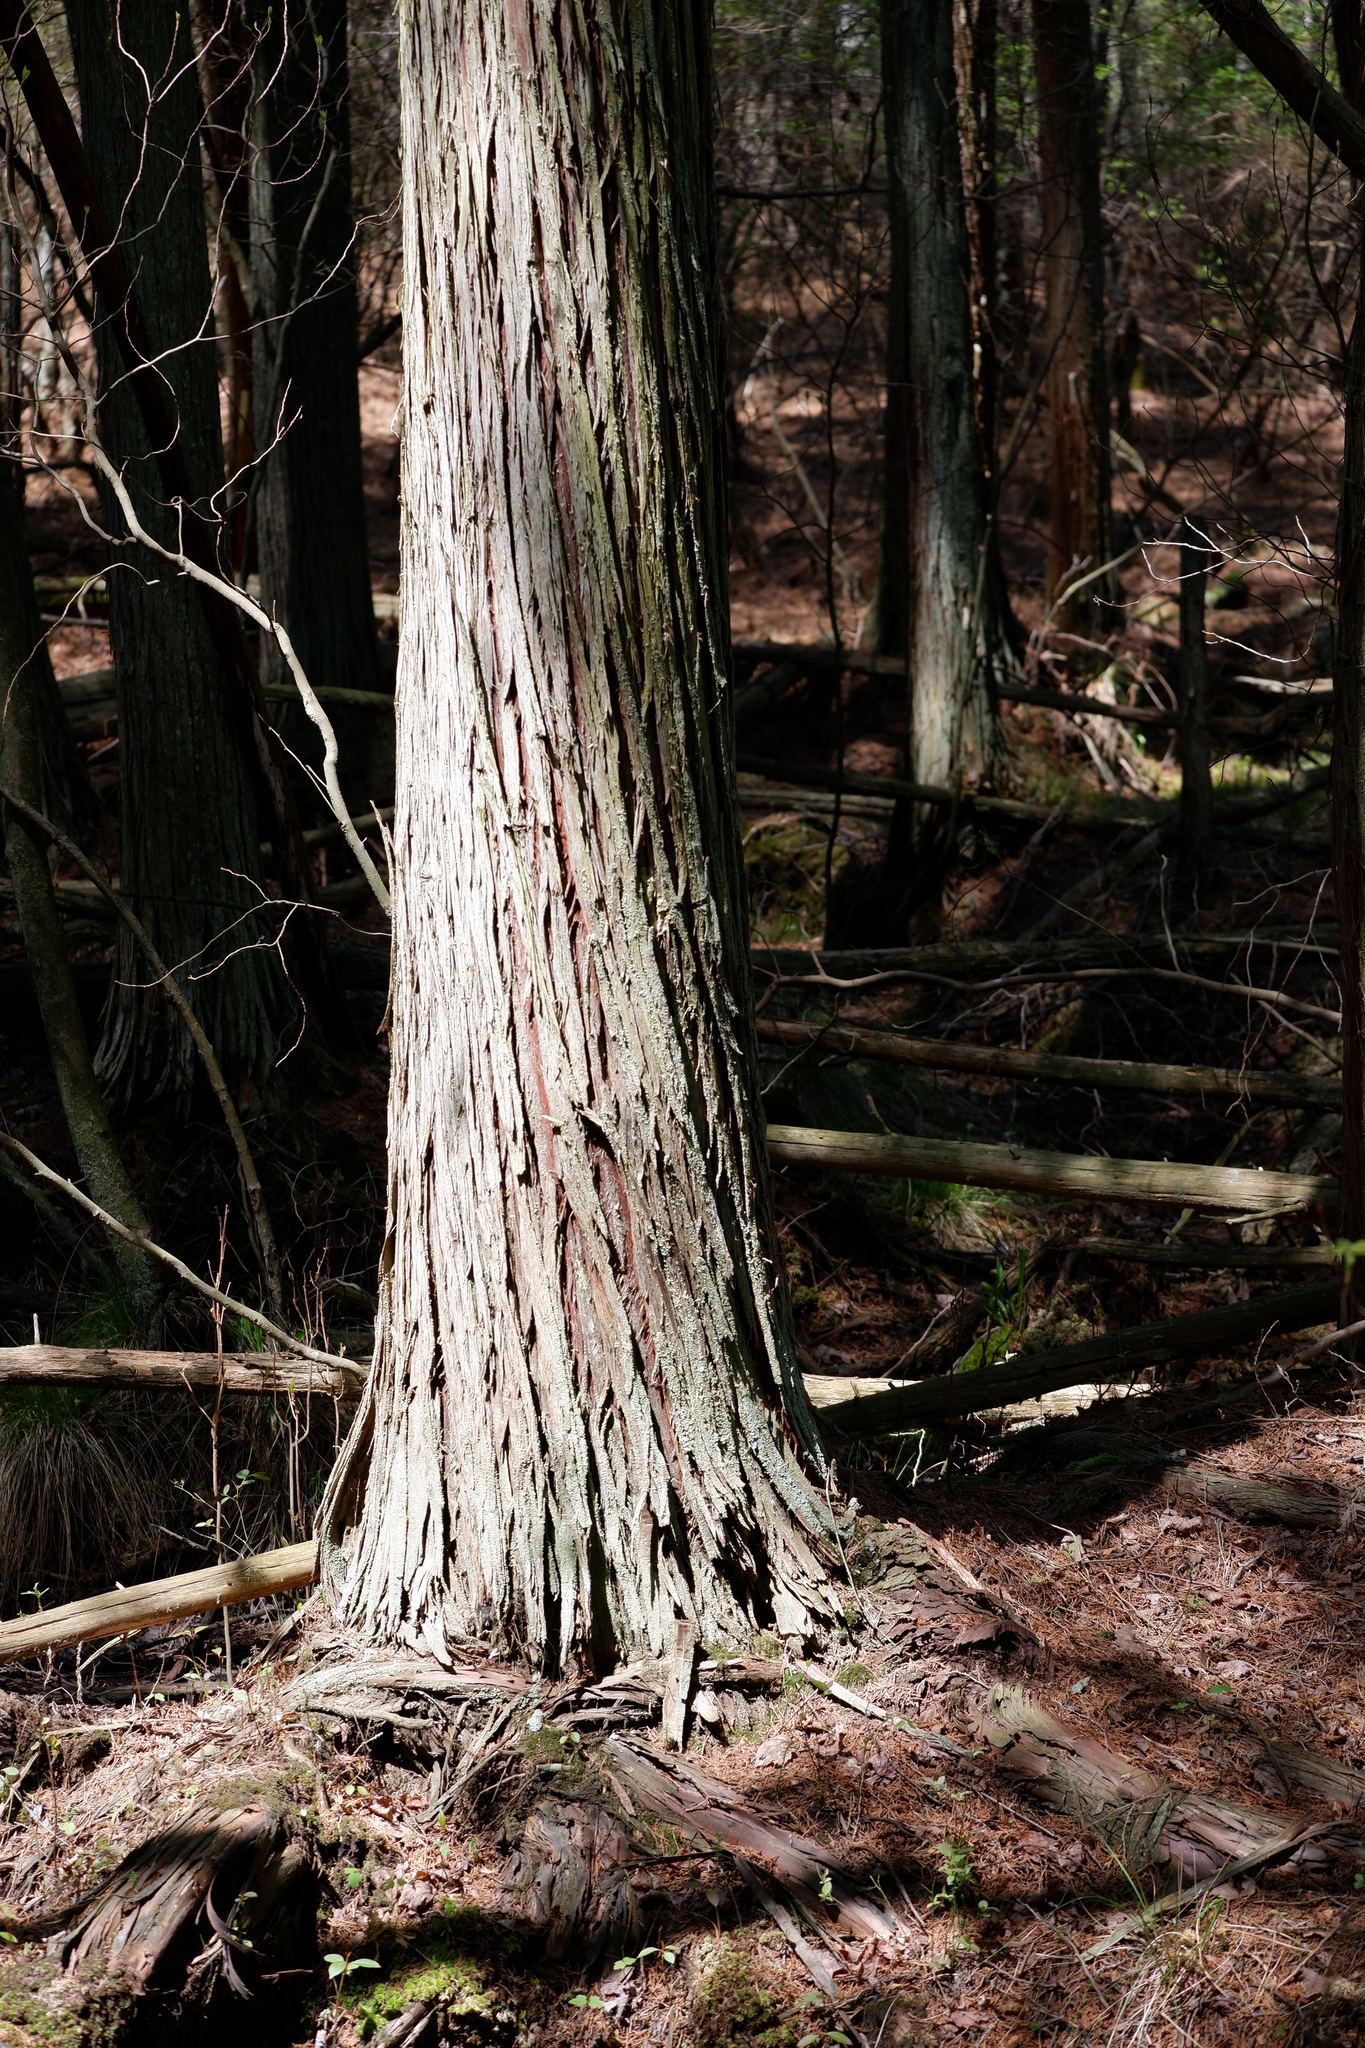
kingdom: Plantae
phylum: Tracheophyta
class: Pinopsida
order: Pinales
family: Cupressaceae
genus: Chamaecyparis
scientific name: Chamaecyparis thyoides
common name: Atlantic white cedar
